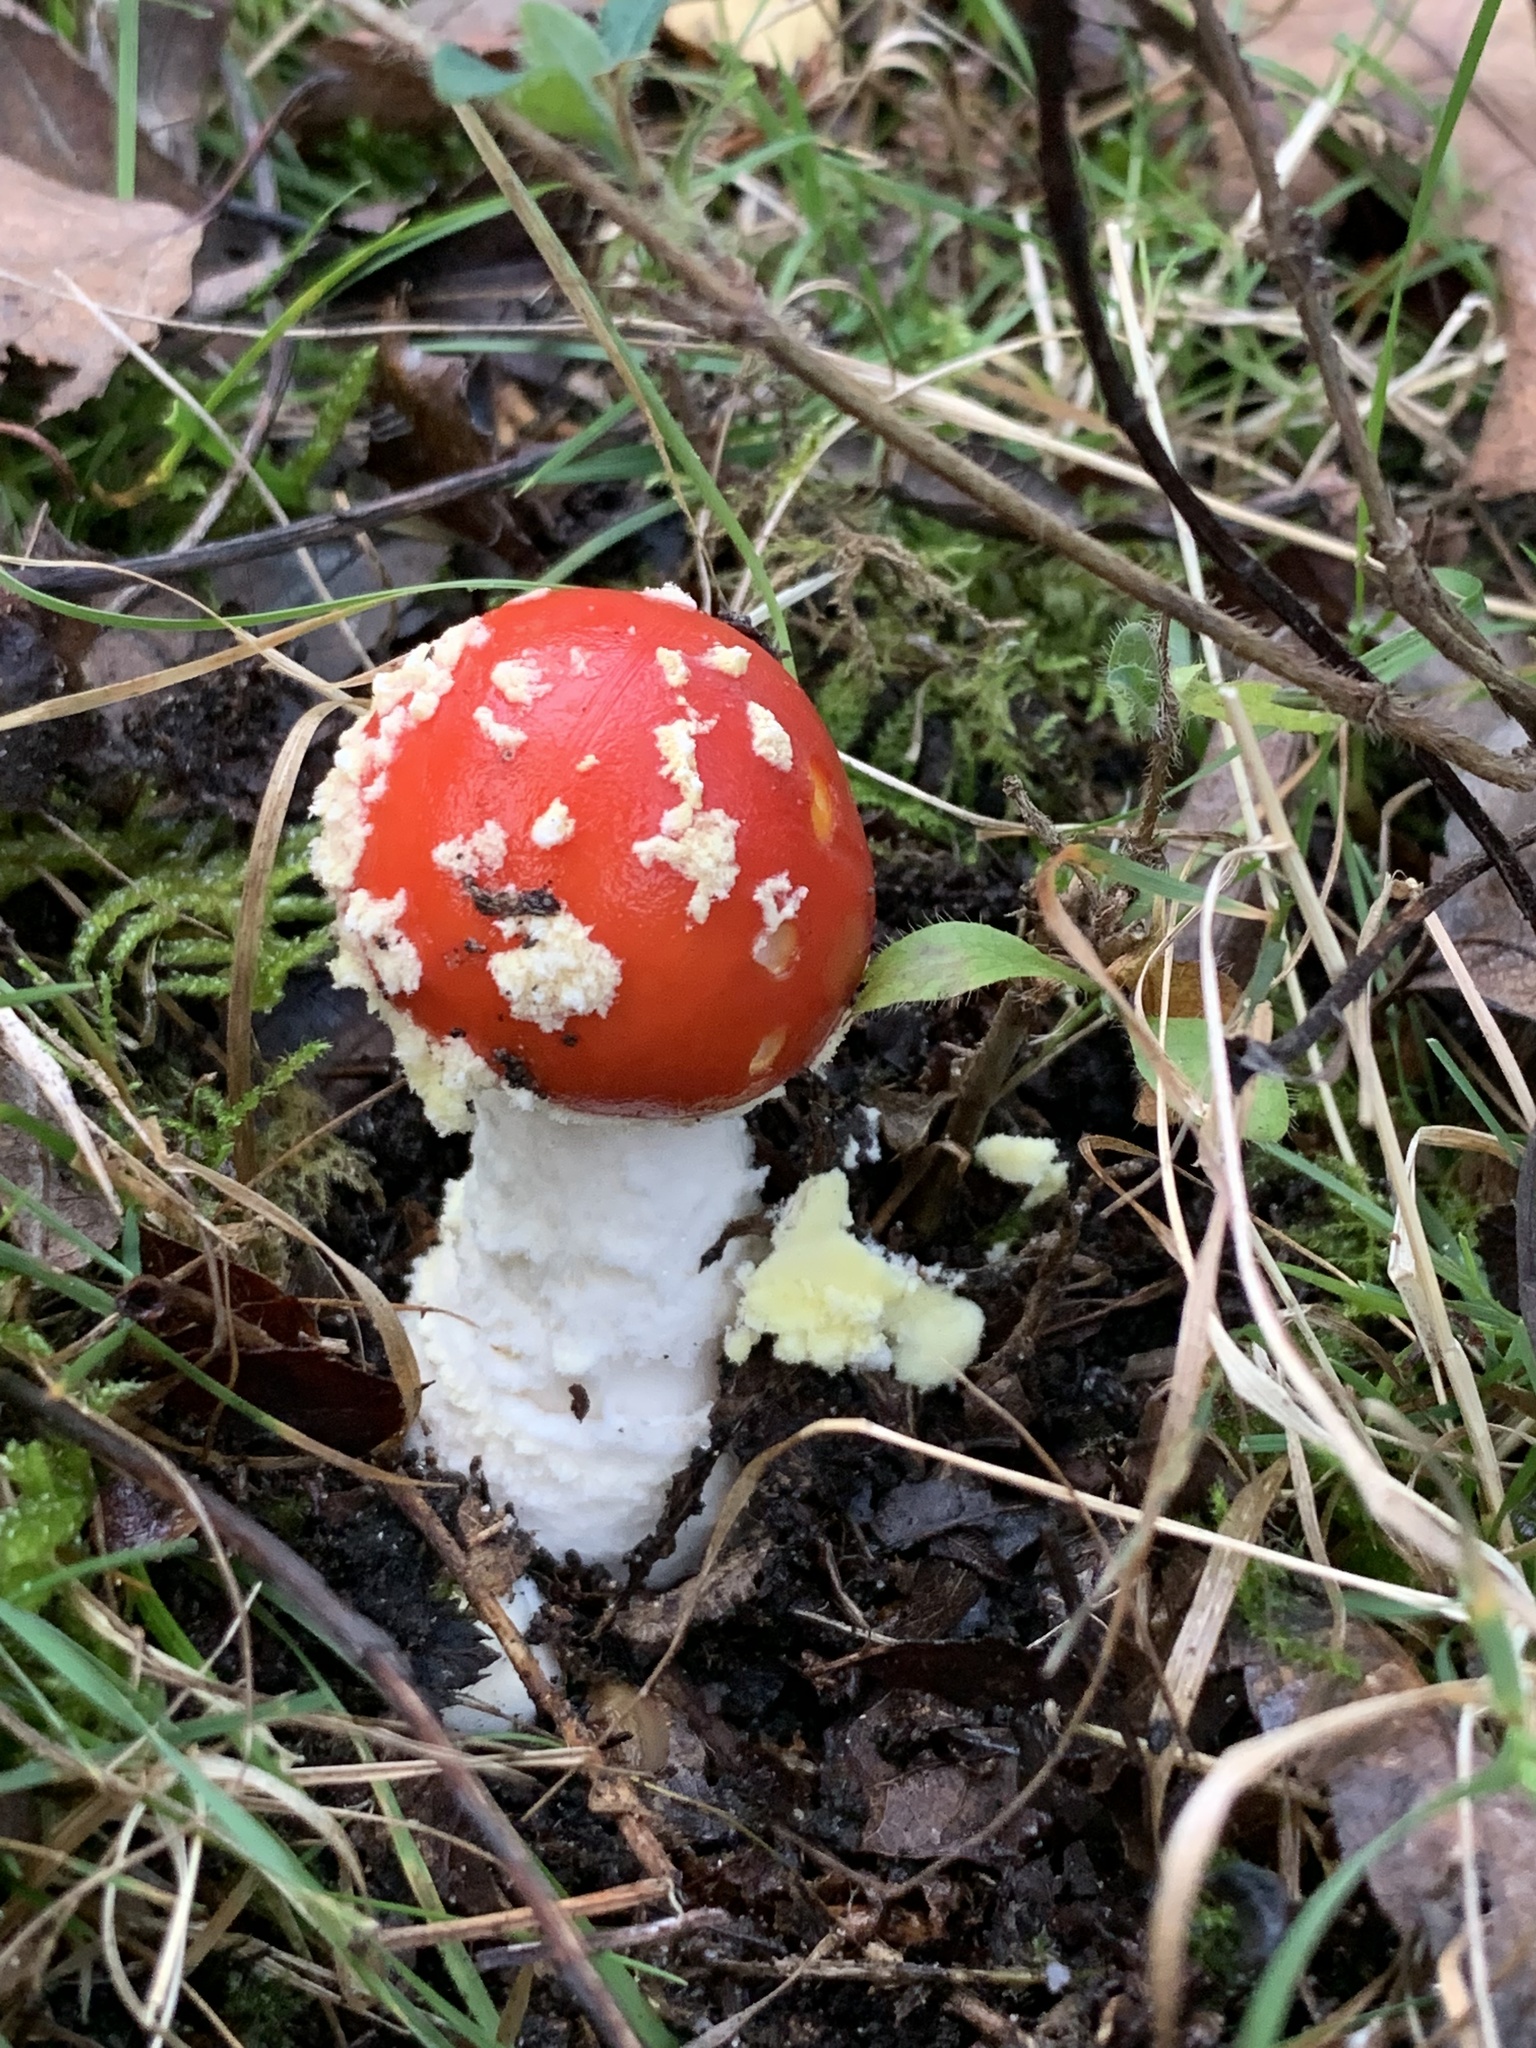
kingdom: Fungi
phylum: Basidiomycota
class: Agaricomycetes
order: Agaricales
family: Amanitaceae
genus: Amanita
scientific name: Amanita muscaria
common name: Fly agaric
